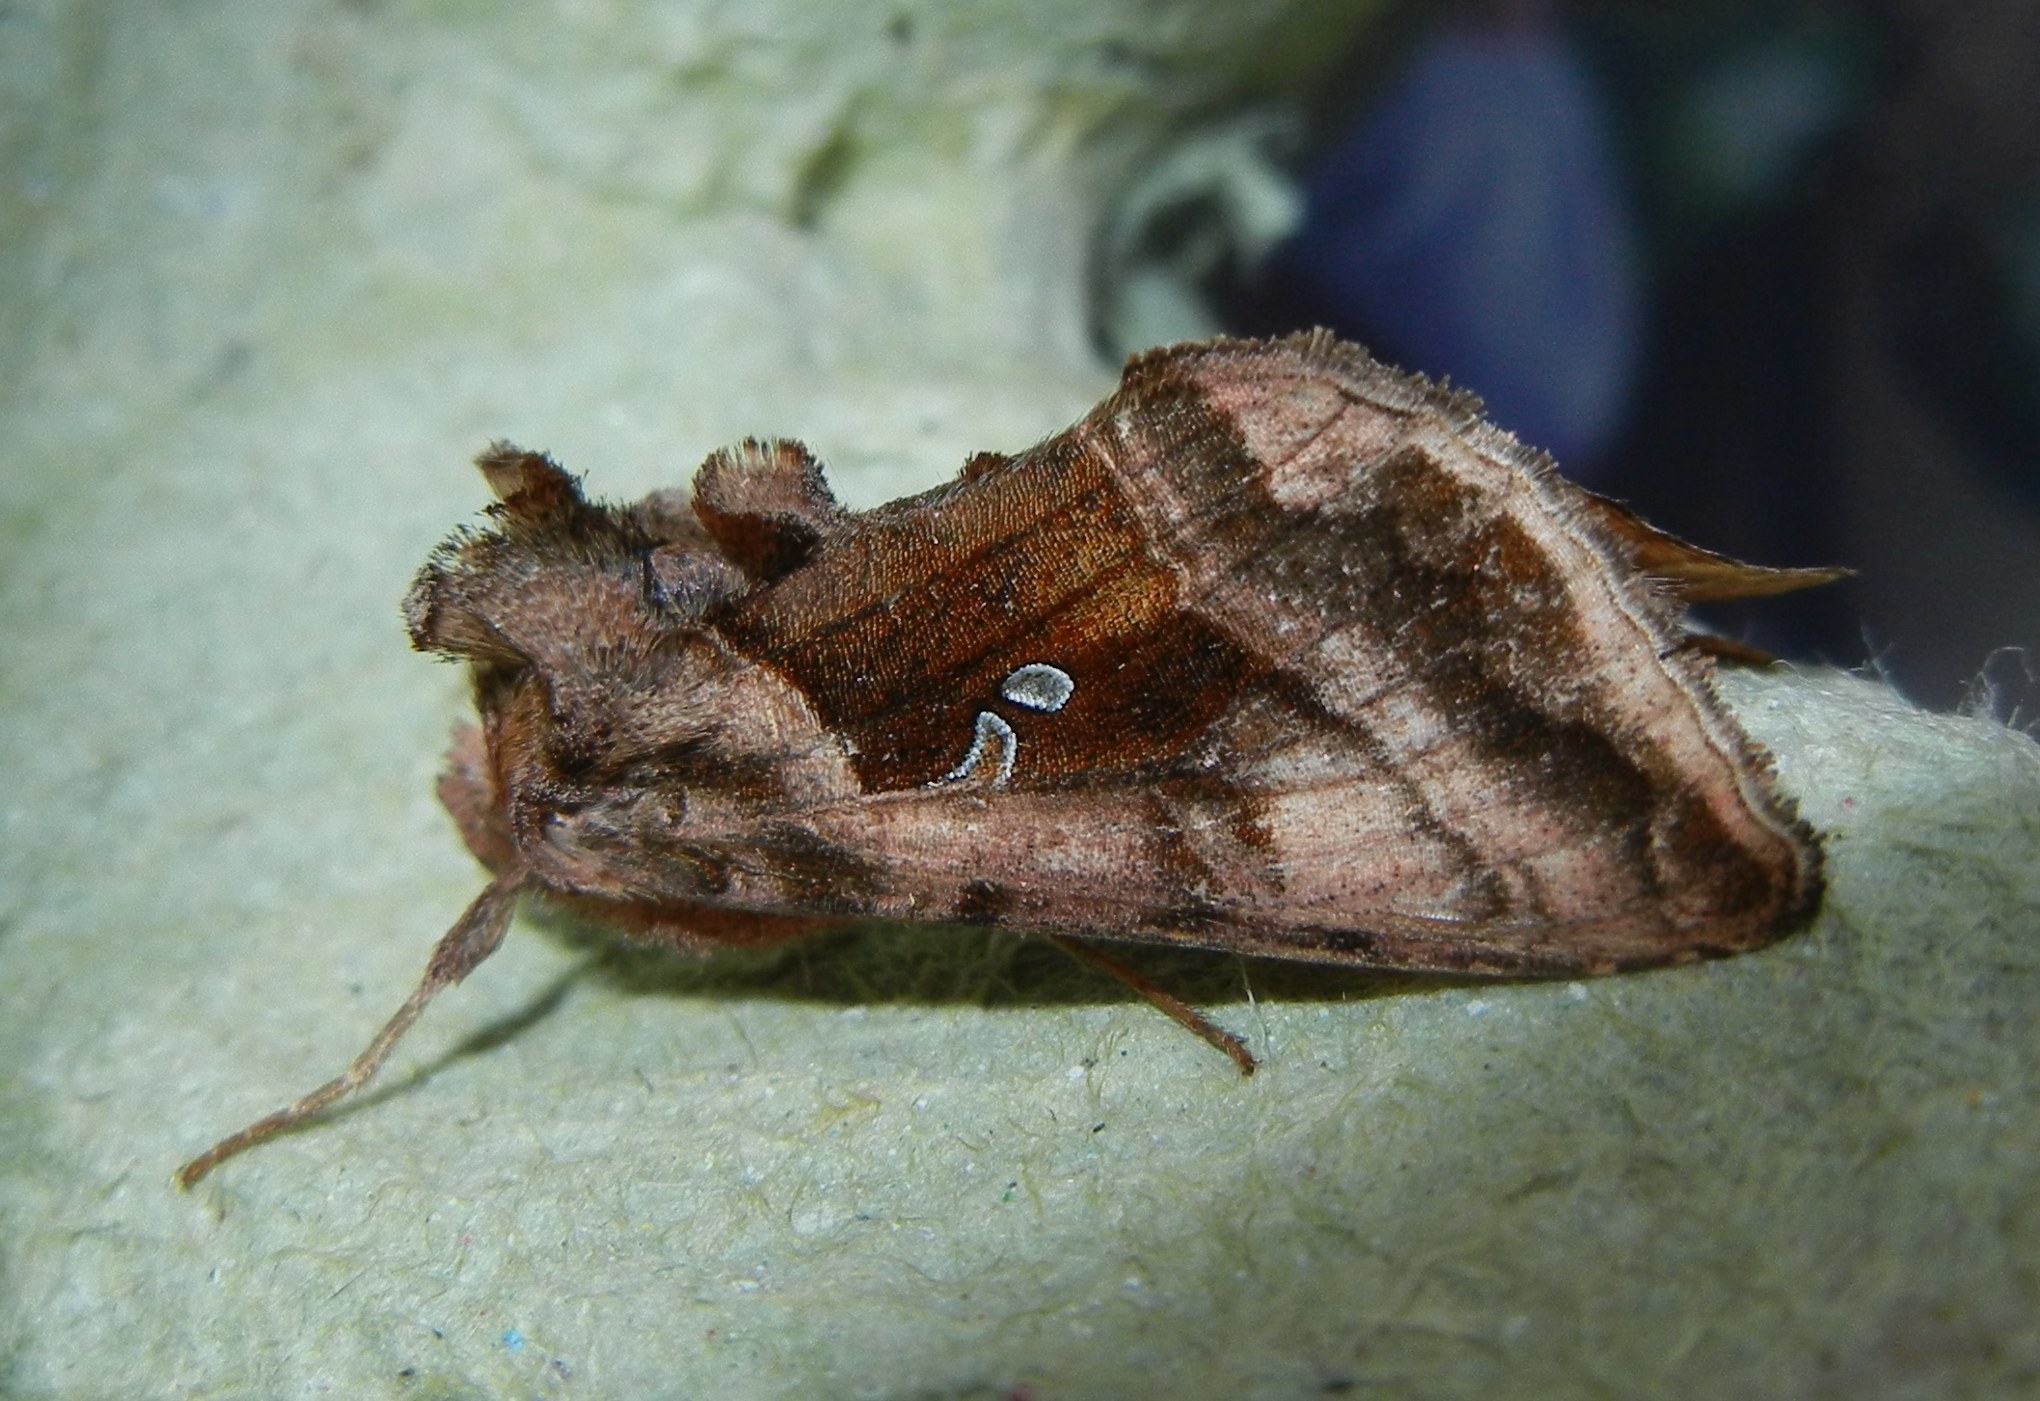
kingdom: Animalia
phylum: Arthropoda
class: Insecta
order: Lepidoptera
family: Noctuidae
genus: Autographa
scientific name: Autographa jota
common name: Plain golden y
